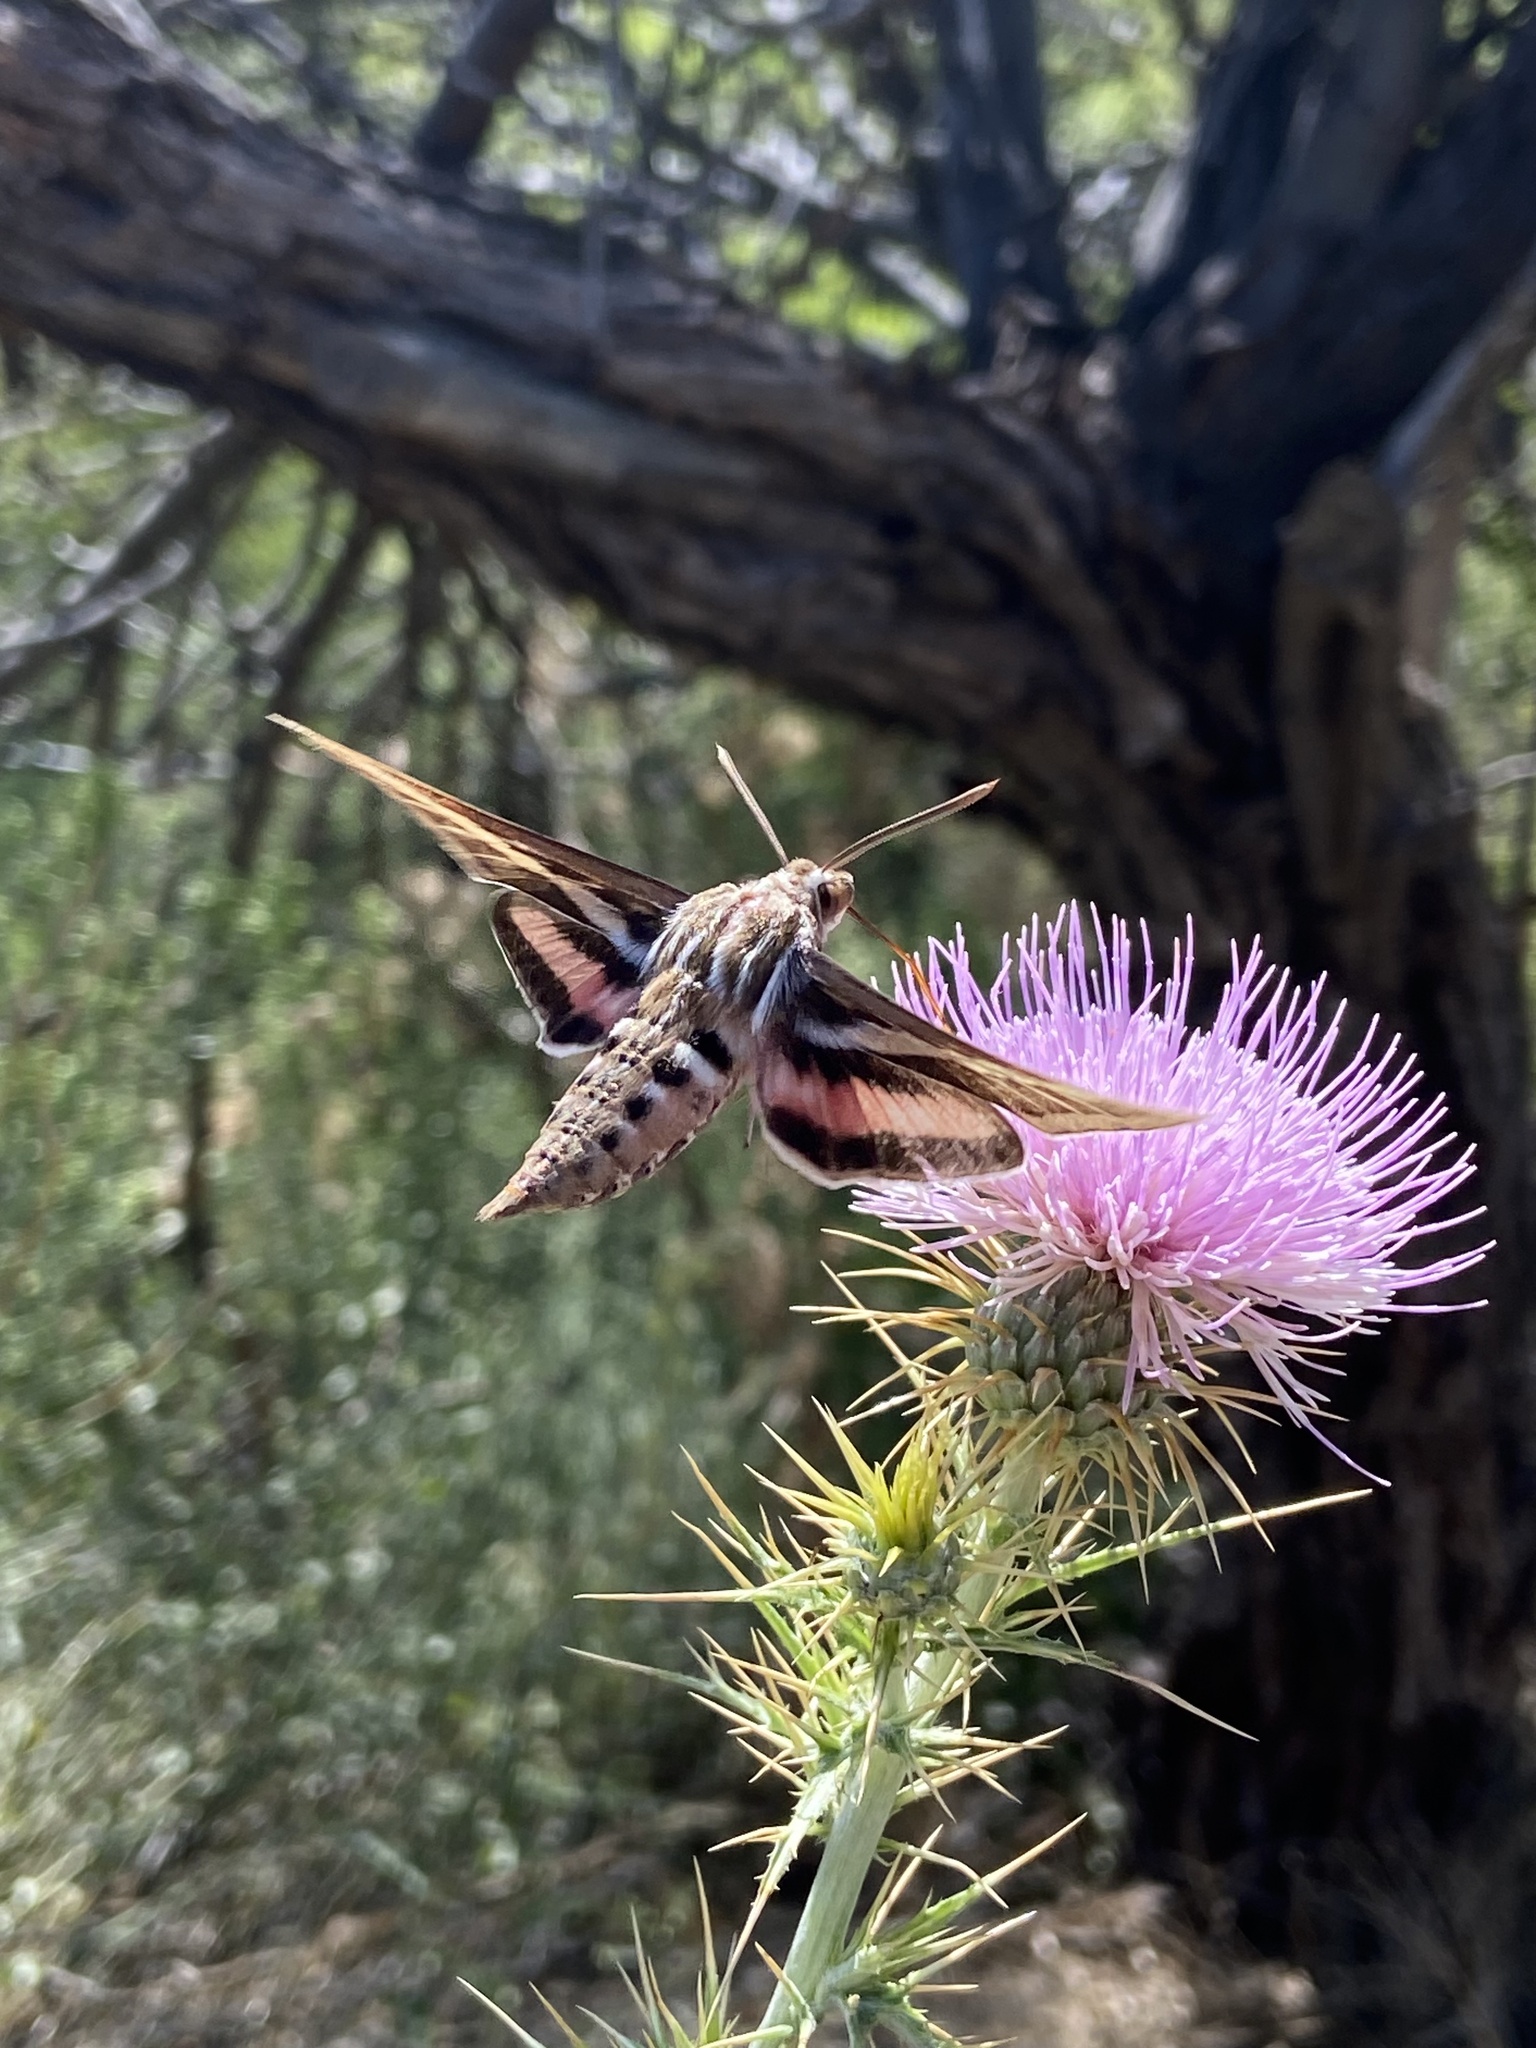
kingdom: Animalia
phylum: Arthropoda
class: Insecta
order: Lepidoptera
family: Sphingidae
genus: Hyles
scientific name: Hyles lineata
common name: White-lined sphinx
